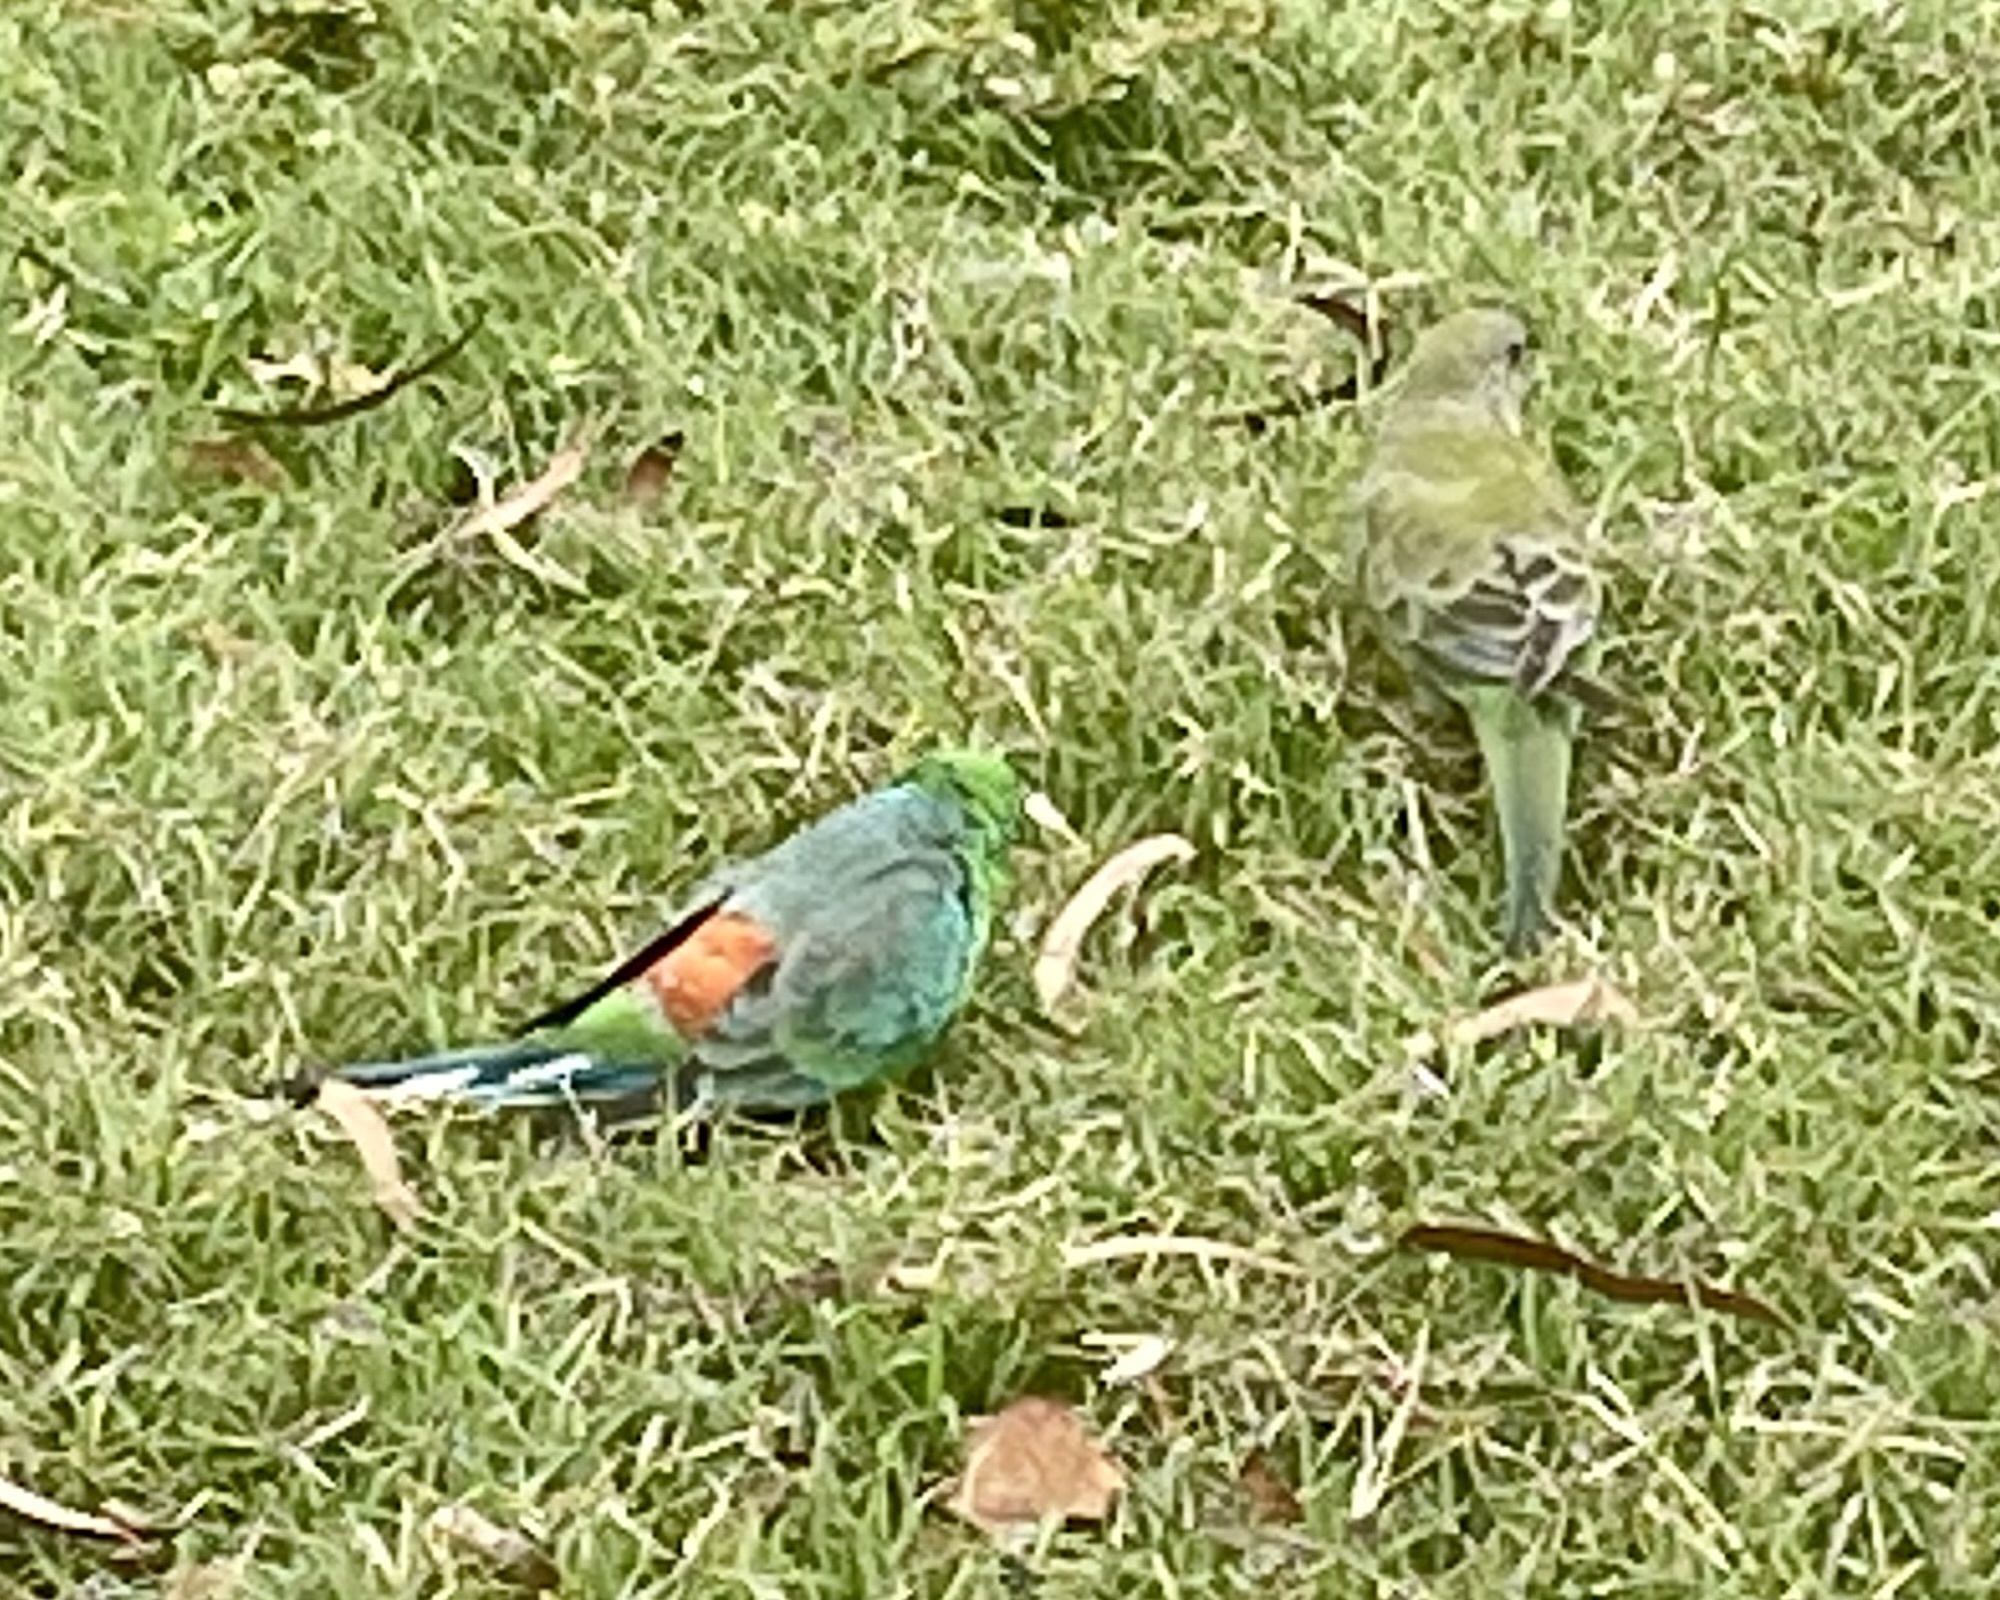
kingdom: Animalia
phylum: Chordata
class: Aves
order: Psittaciformes
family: Psittacidae
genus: Psephotus
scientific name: Psephotus haematonotus
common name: Red-rumped parrot
